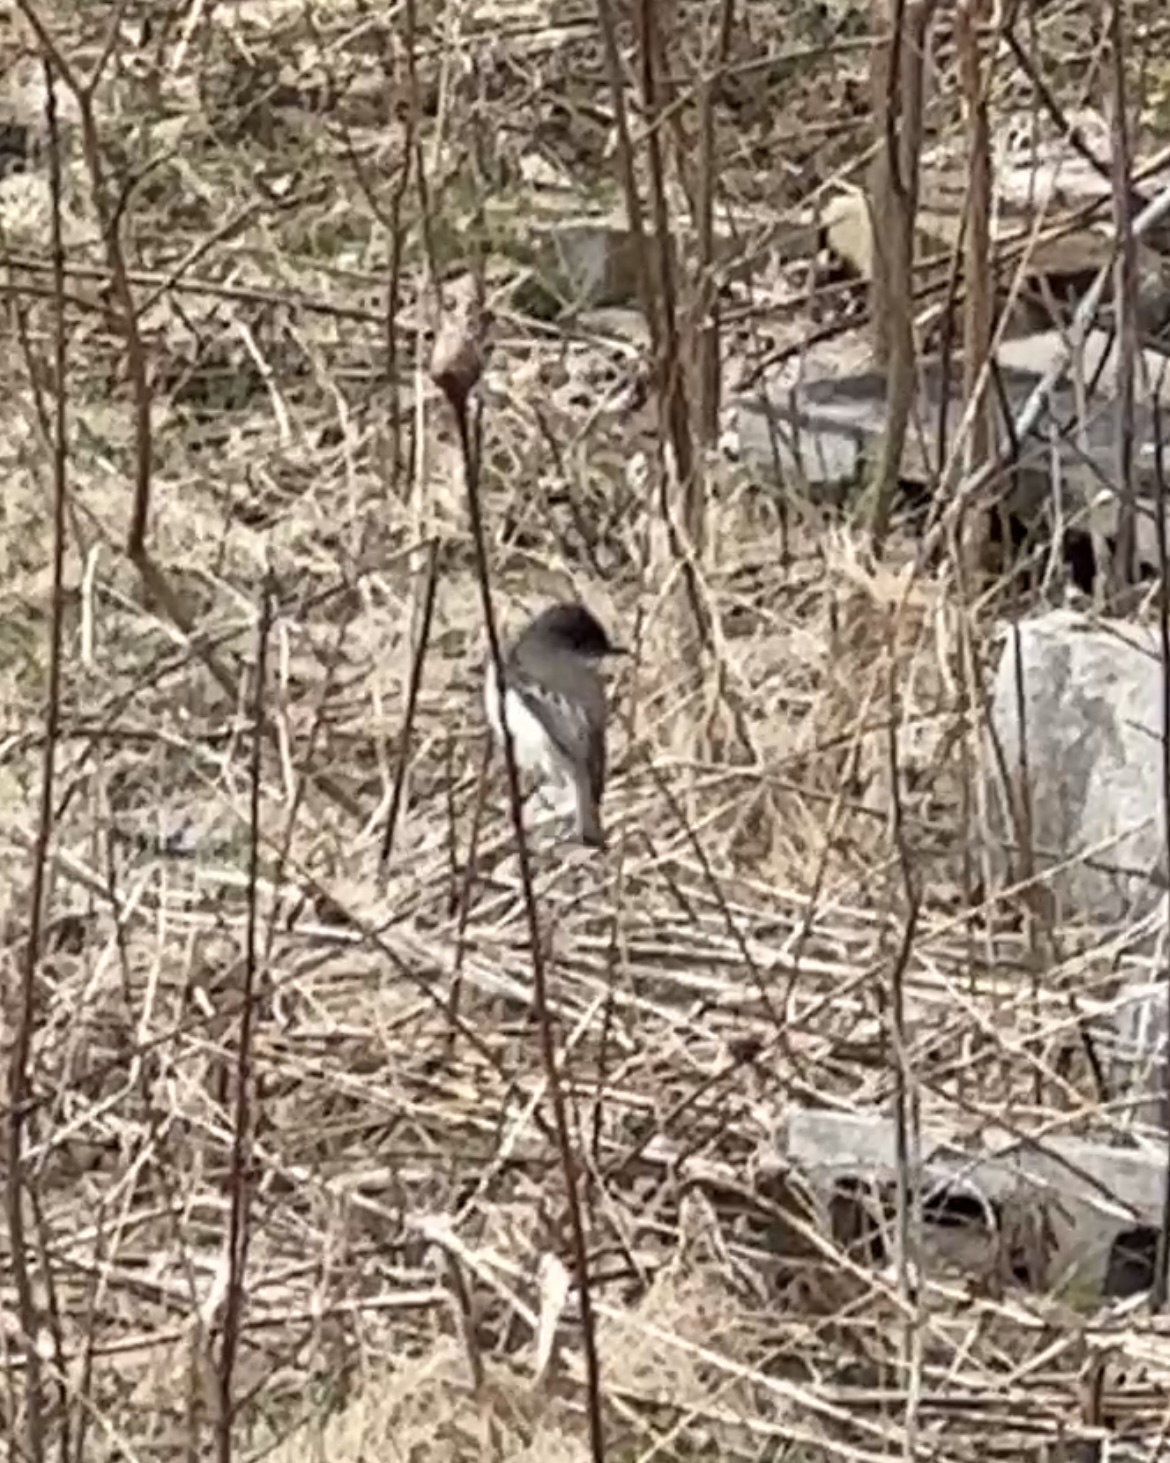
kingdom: Animalia
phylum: Chordata
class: Aves
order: Passeriformes
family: Tyrannidae
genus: Sayornis
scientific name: Sayornis phoebe
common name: Eastern phoebe
